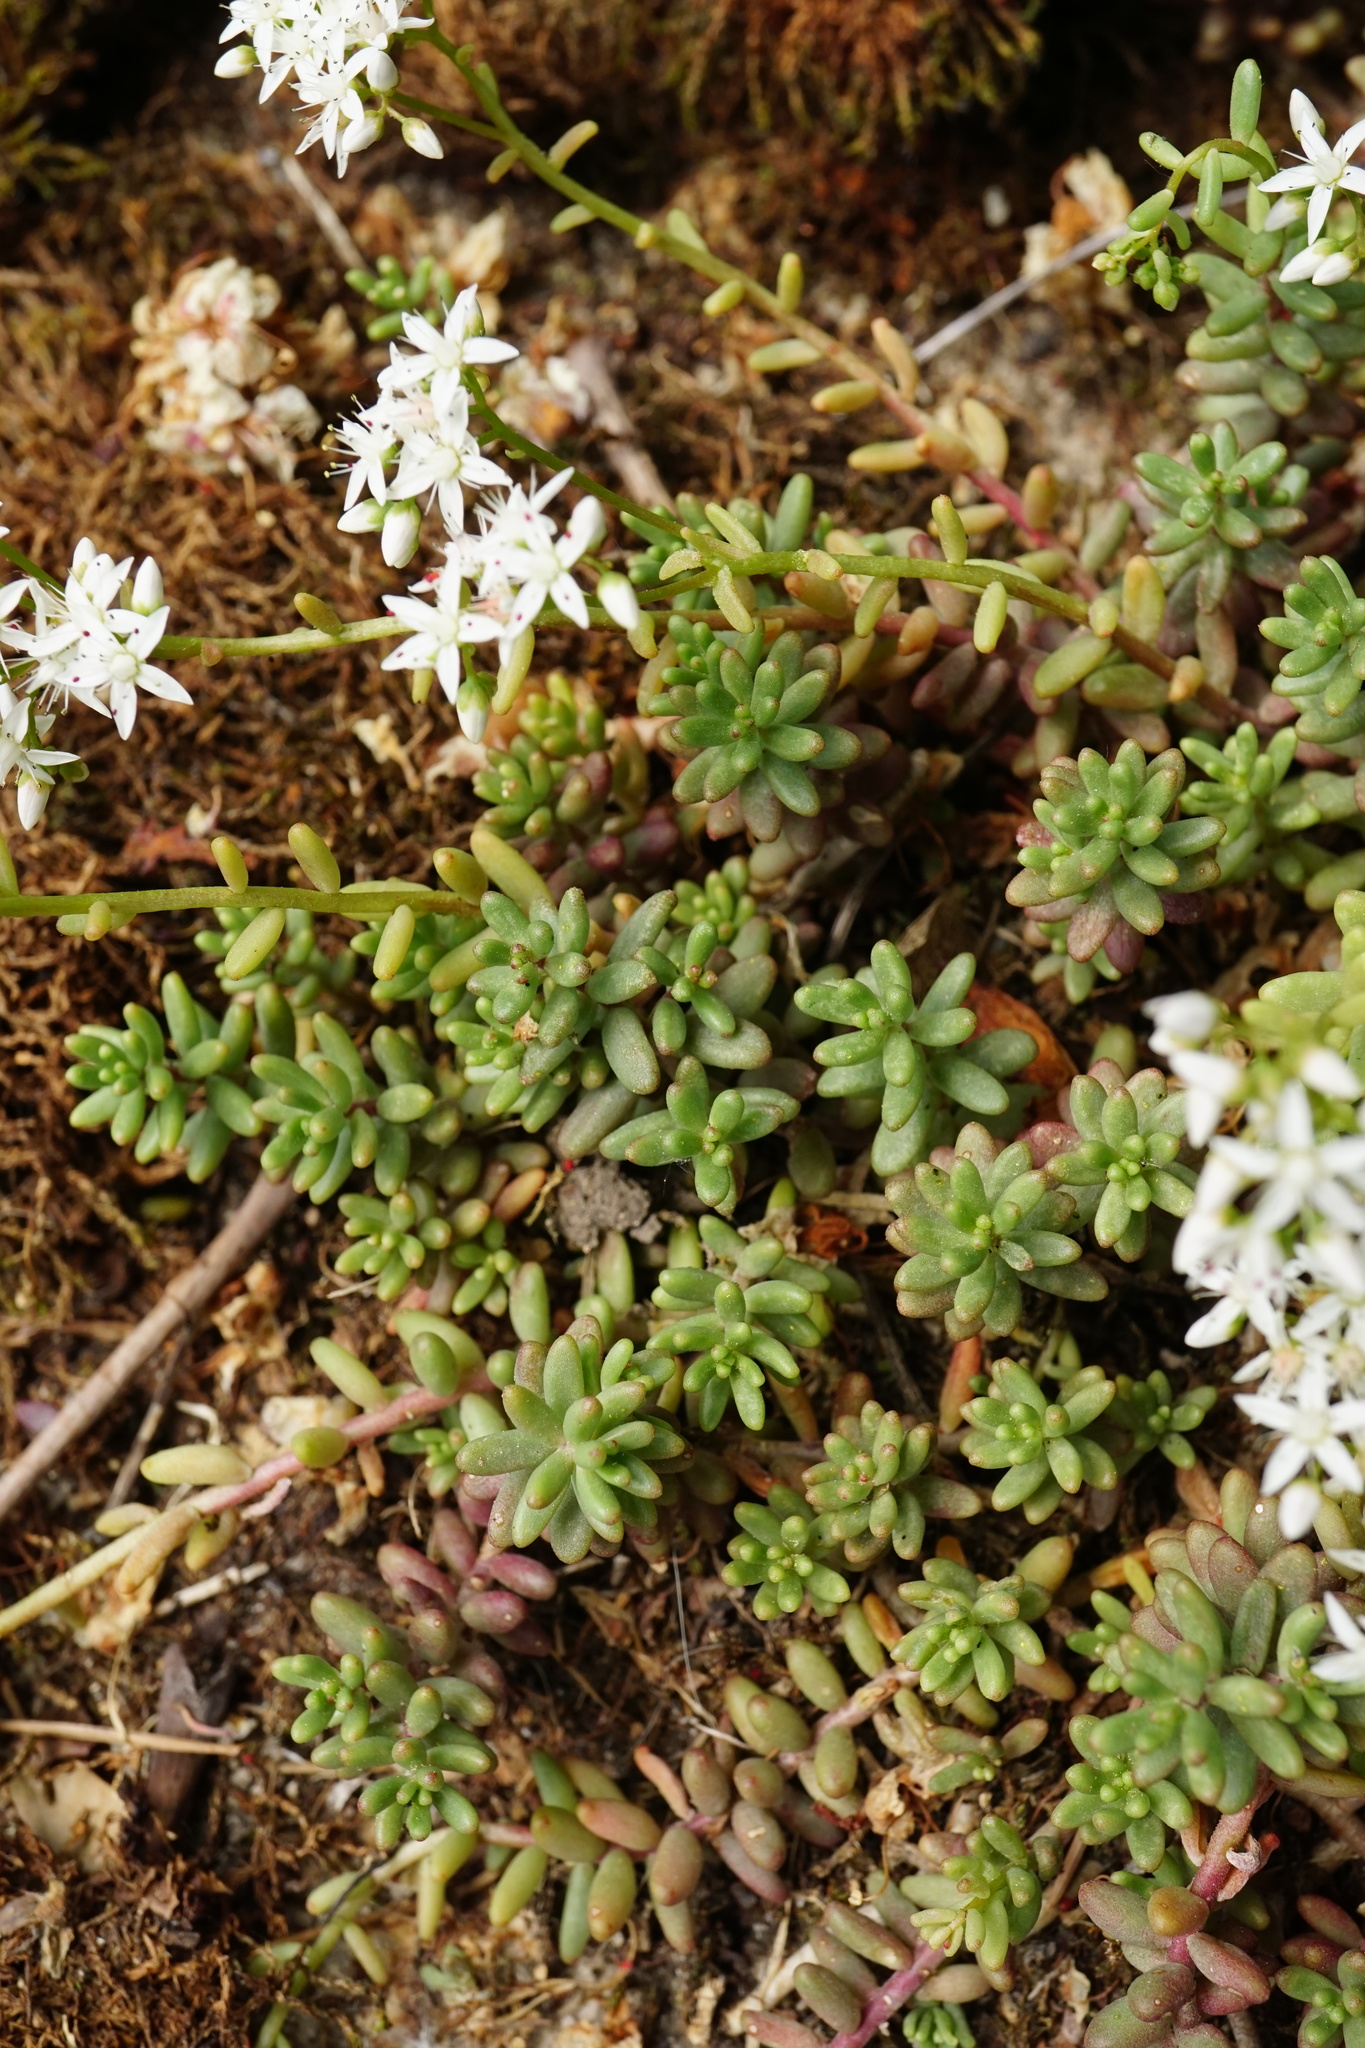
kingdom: Plantae
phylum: Tracheophyta
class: Magnoliopsida
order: Saxifragales
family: Crassulaceae
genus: Sedum
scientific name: Sedum album
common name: White stonecrop
